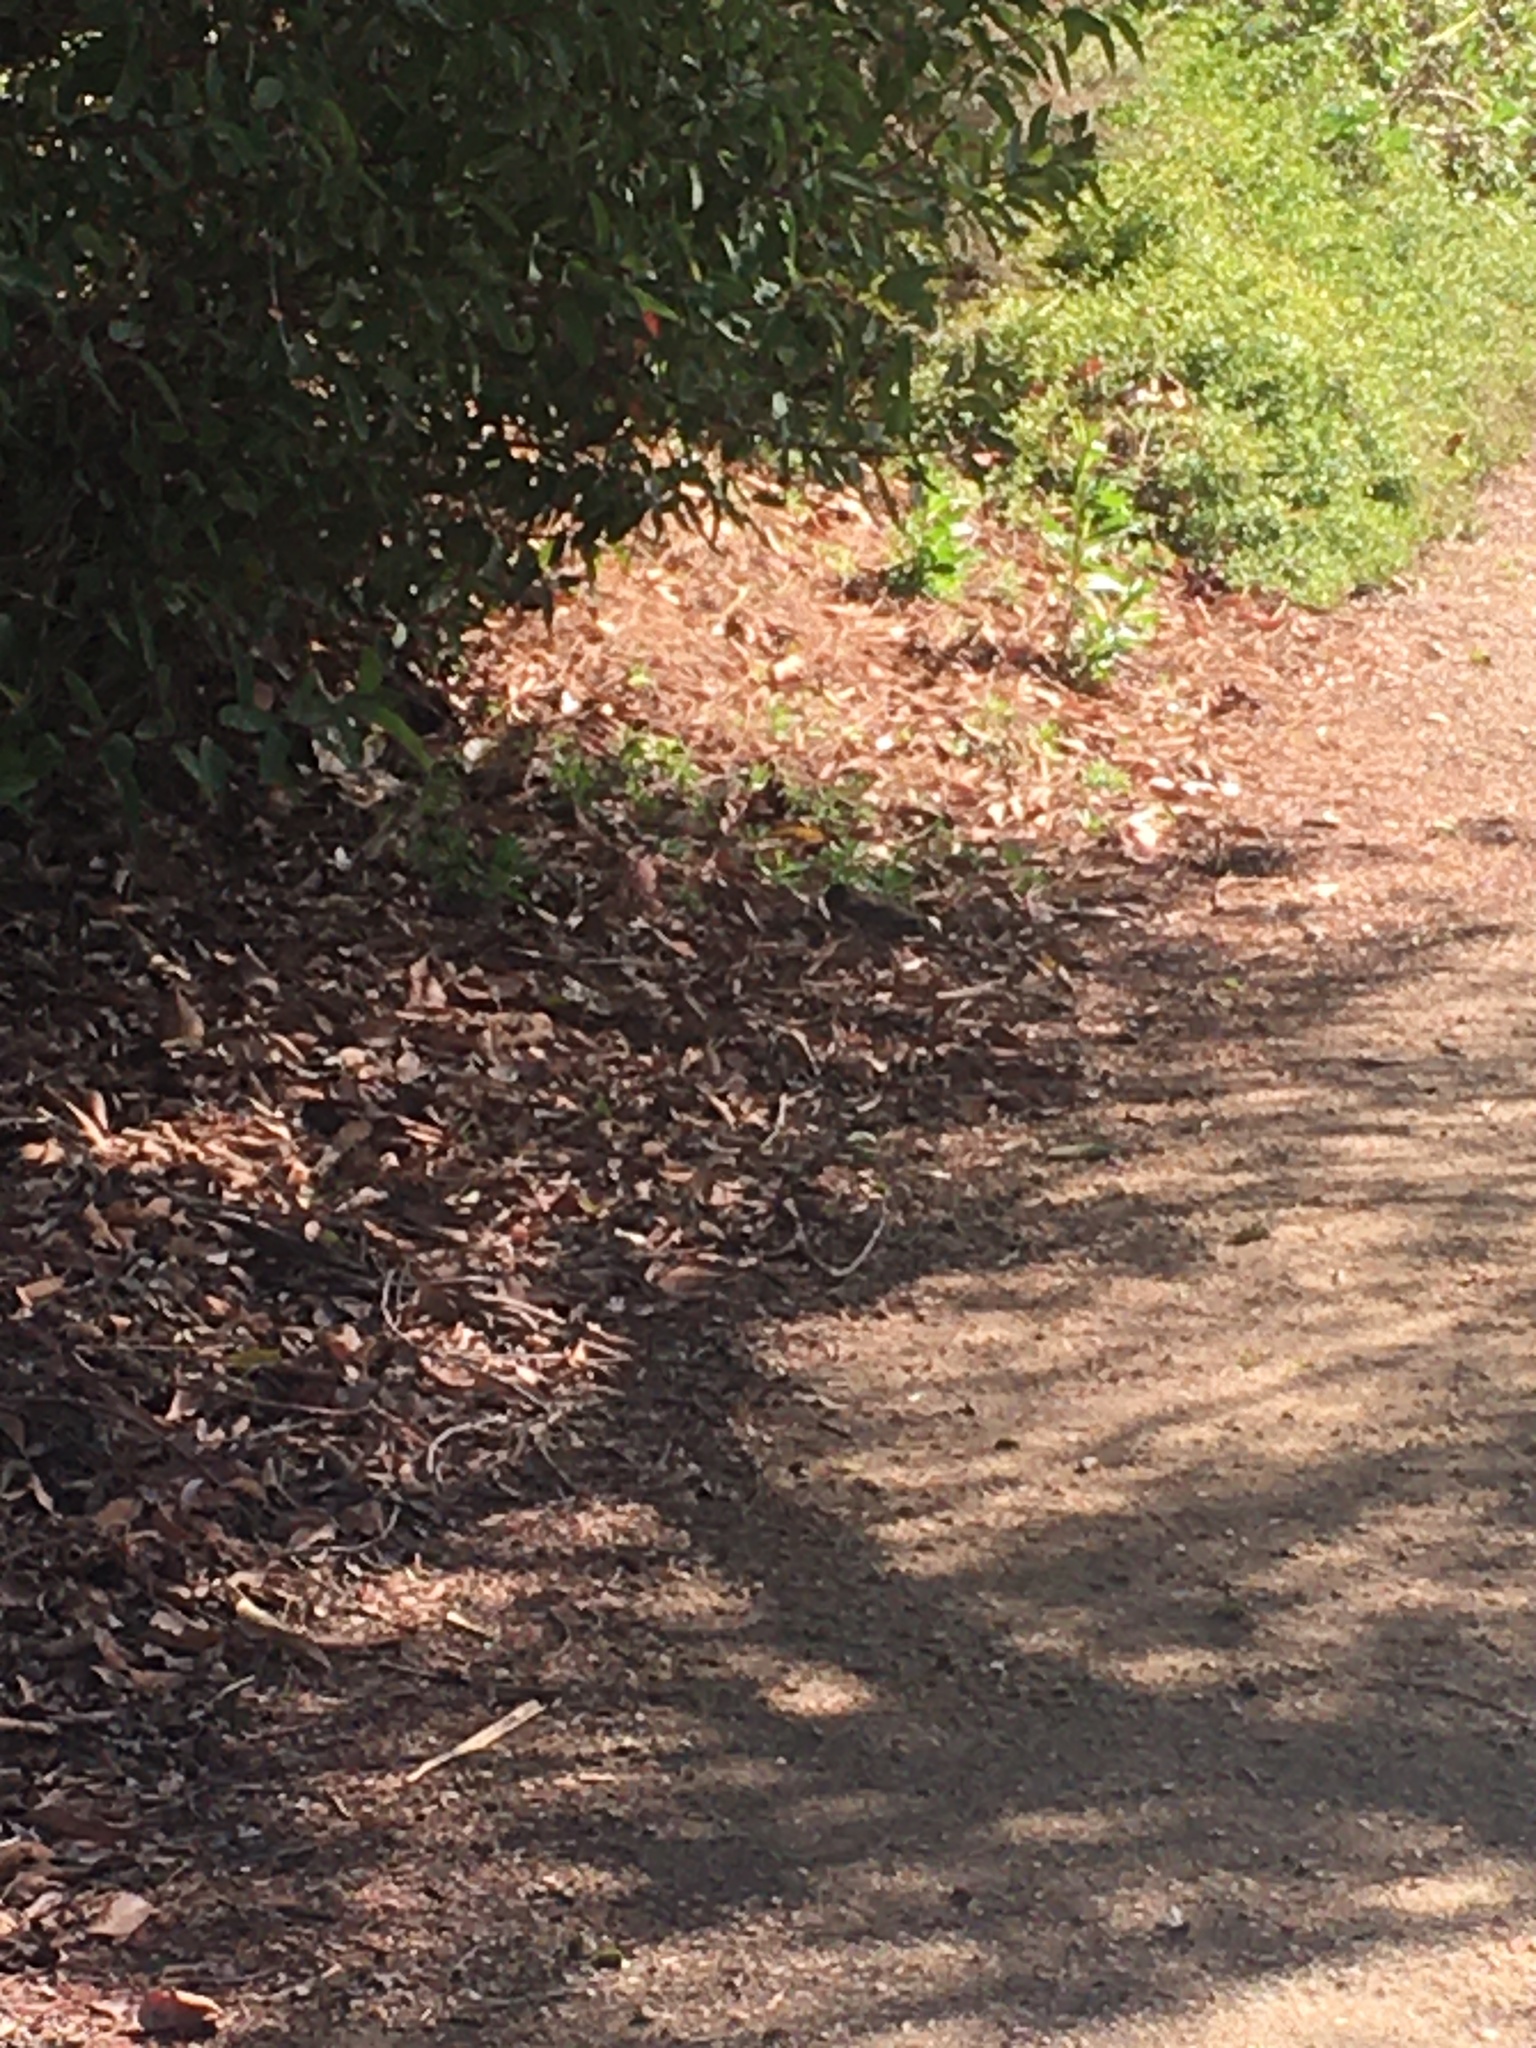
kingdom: Animalia
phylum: Chordata
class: Aves
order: Passeriformes
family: Passerellidae
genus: Melozone
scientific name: Melozone crissalis
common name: California towhee
